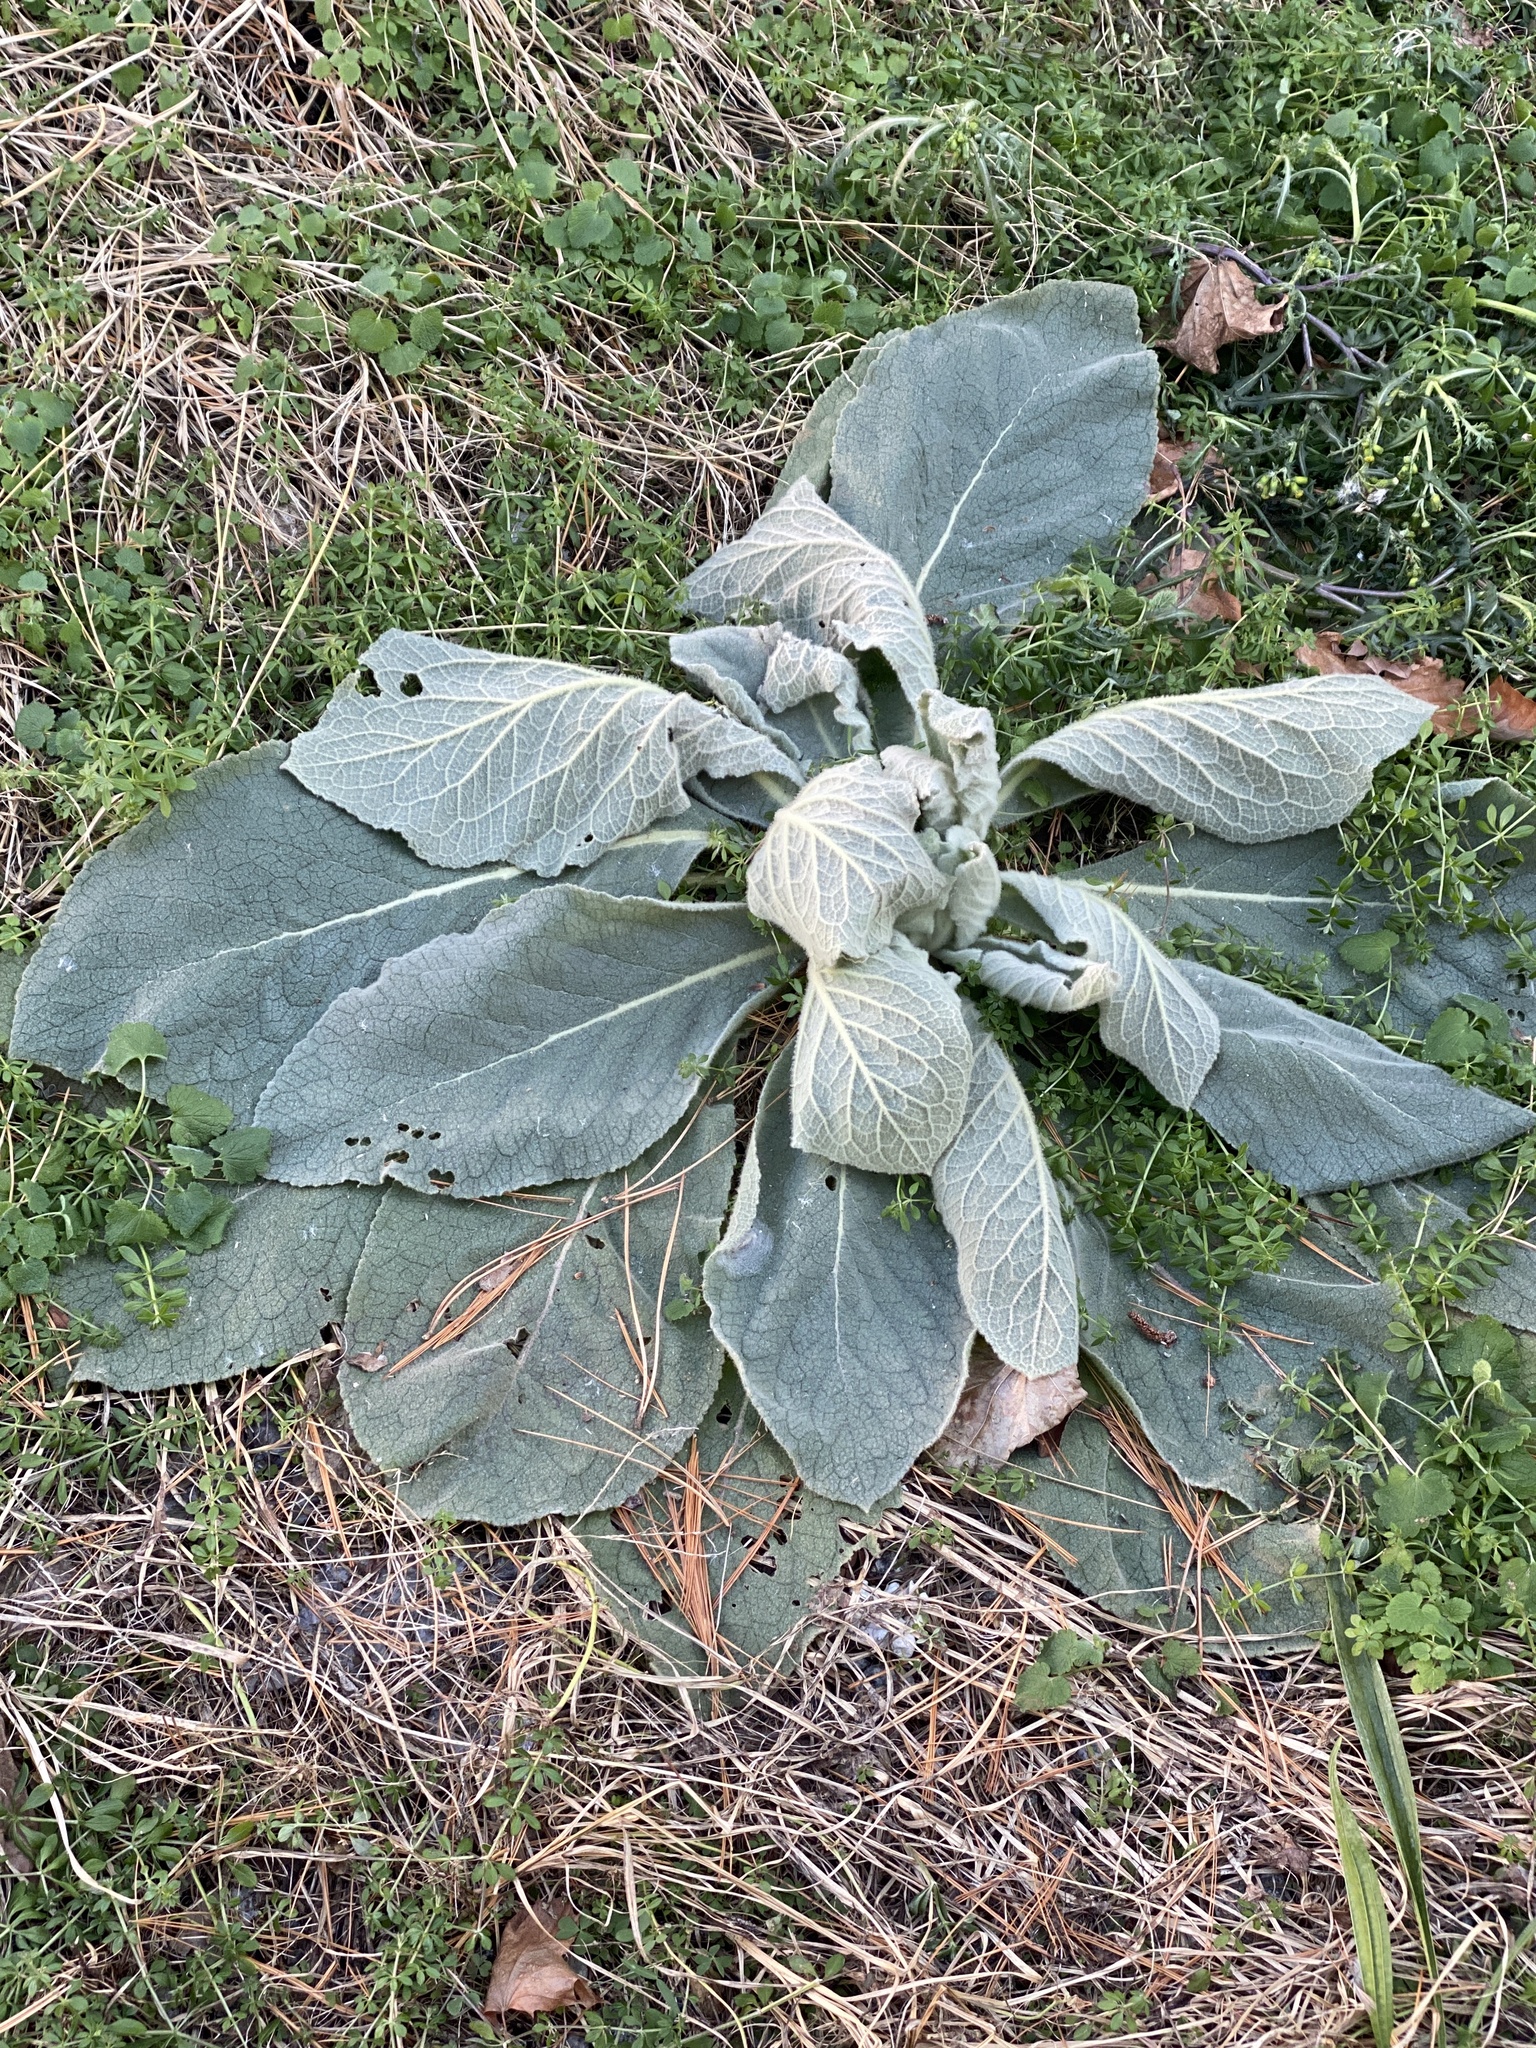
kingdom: Plantae
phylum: Tracheophyta
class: Magnoliopsida
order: Lamiales
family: Scrophulariaceae
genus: Verbascum
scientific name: Verbascum thapsus
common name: Common mullein
